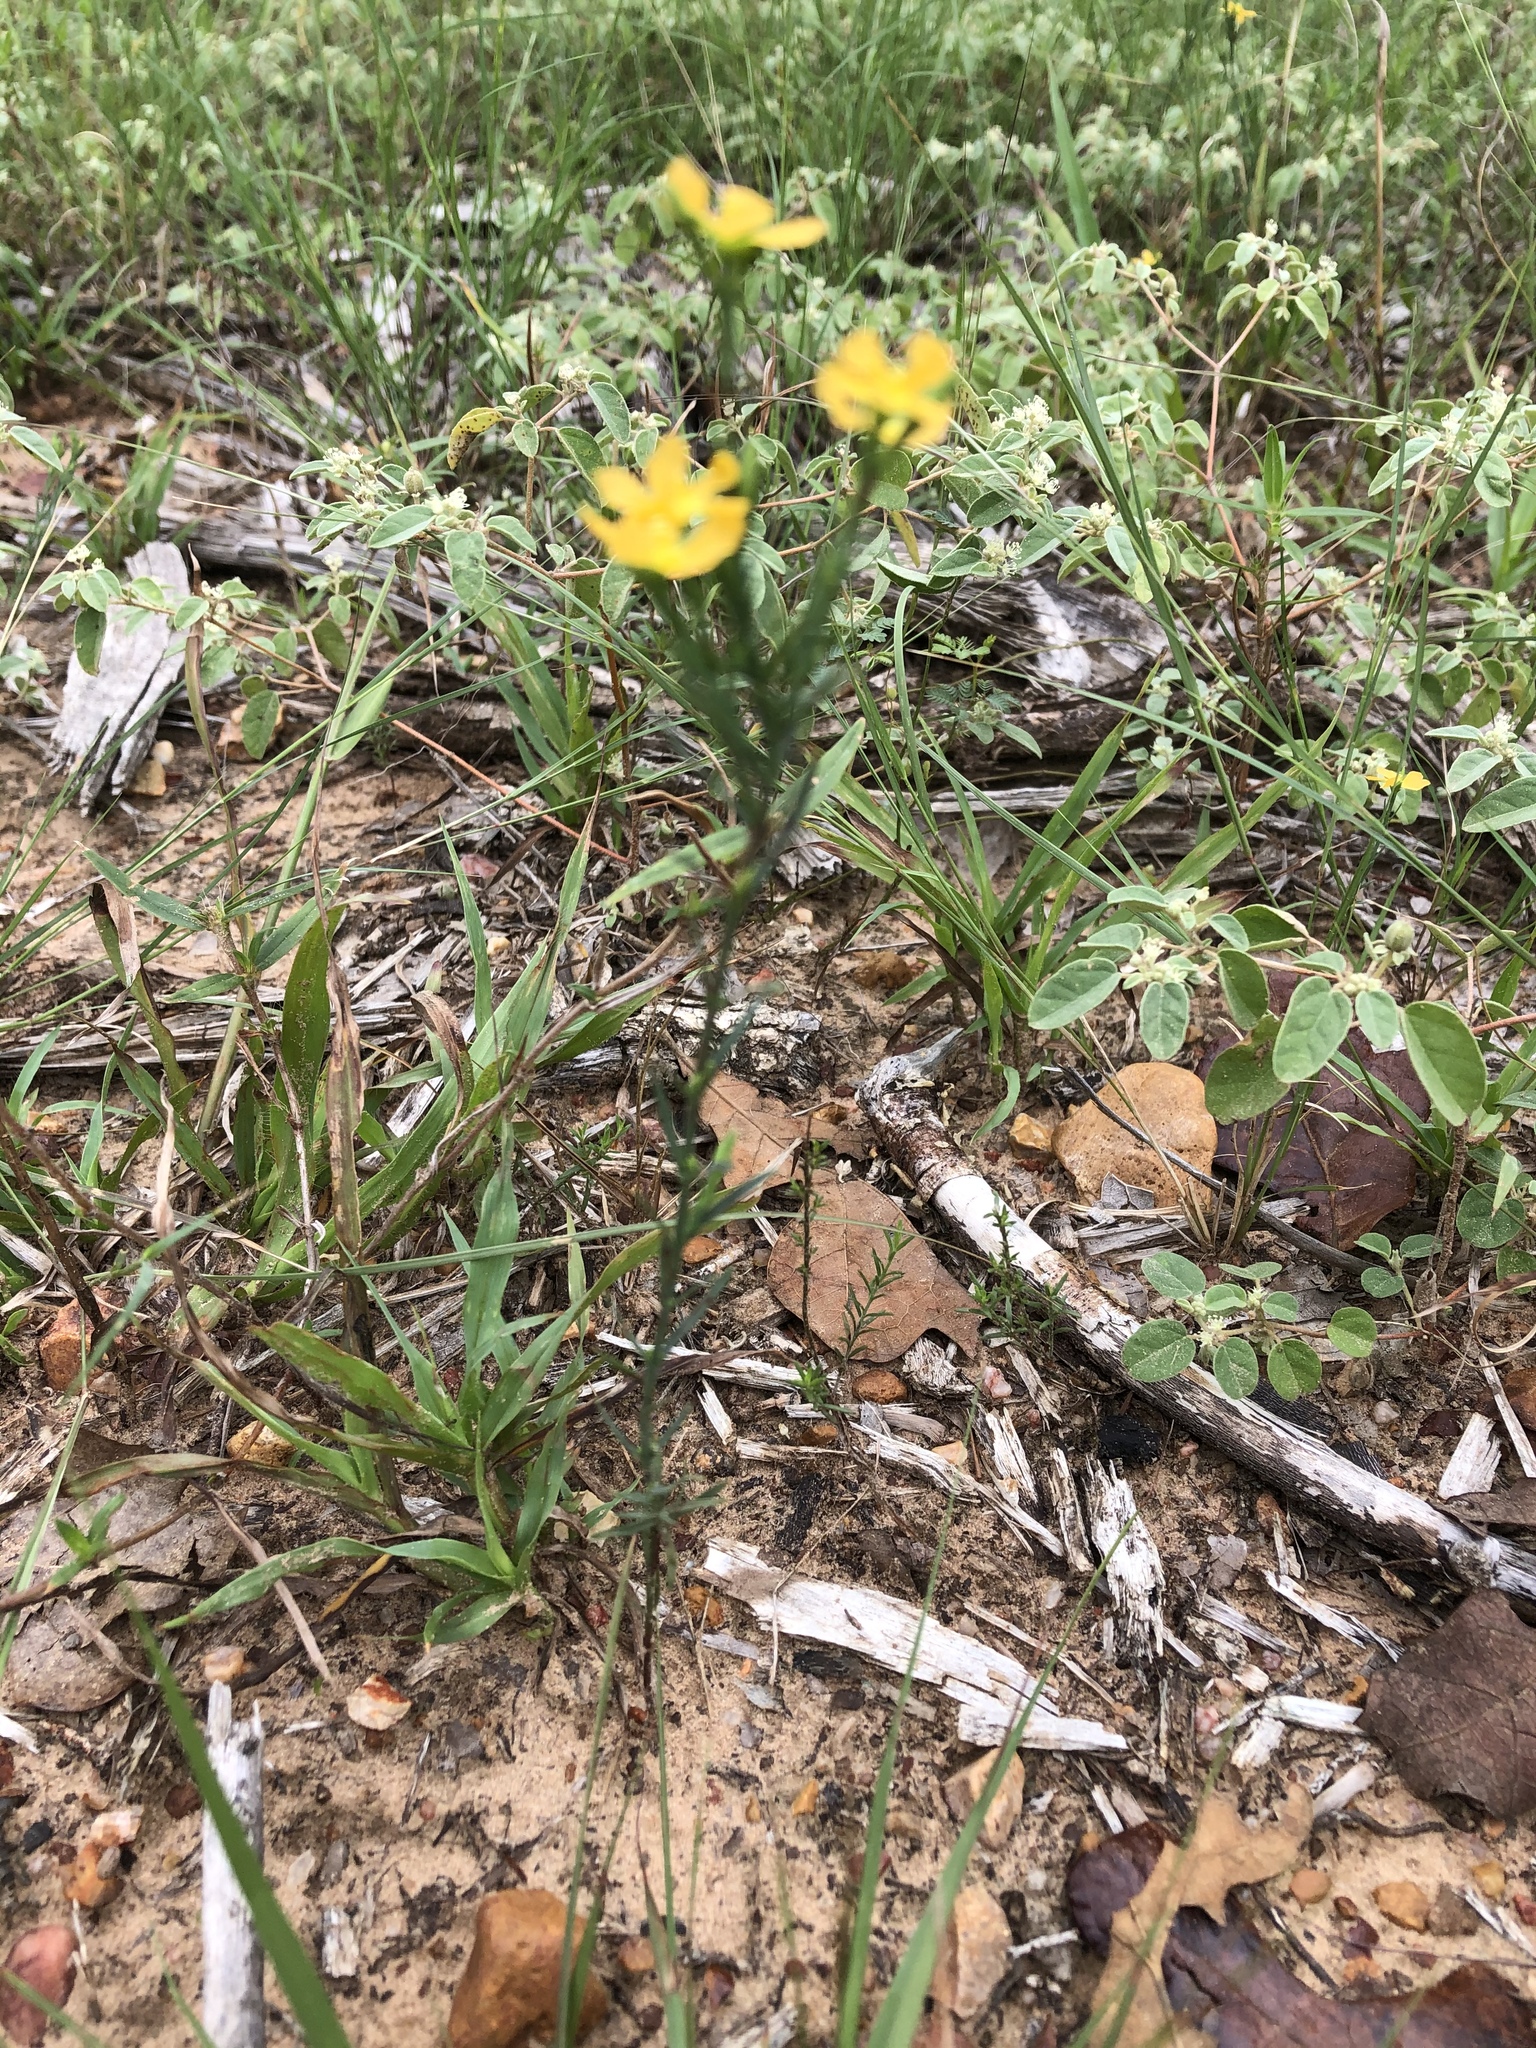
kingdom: Plantae
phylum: Tracheophyta
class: Magnoliopsida
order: Malpighiales
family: Hypericaceae
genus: Hypericum
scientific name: Hypericum drummondii
